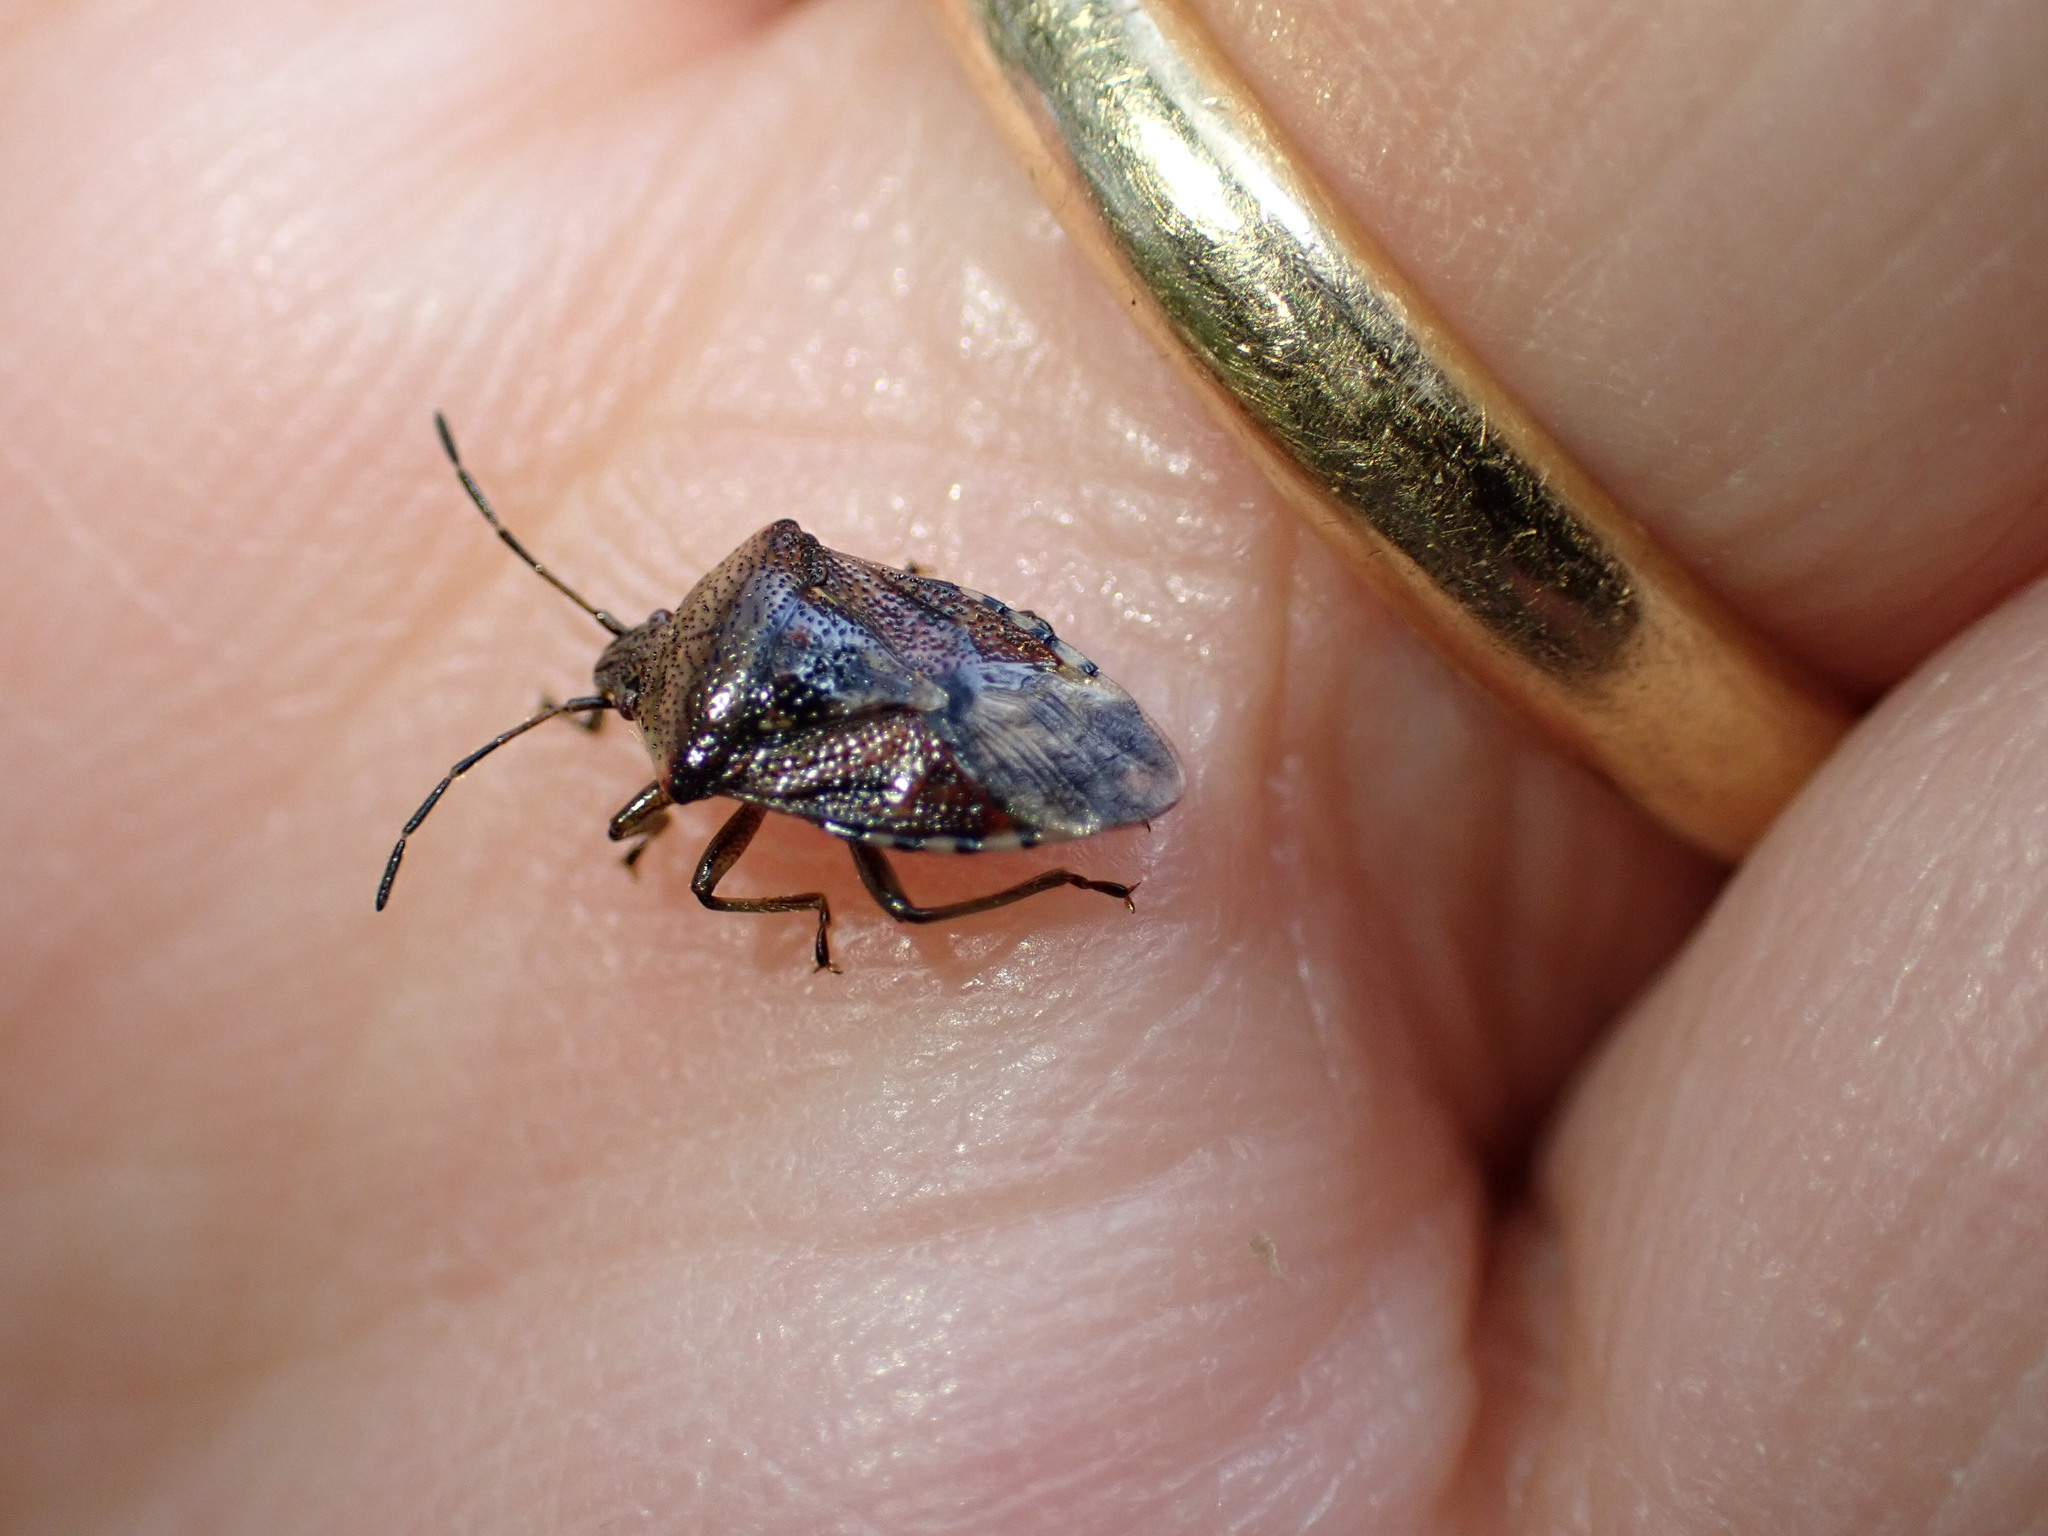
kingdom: Animalia
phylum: Arthropoda
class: Insecta
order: Hemiptera
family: Acanthosomatidae
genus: Elasmucha
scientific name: Elasmucha grisea
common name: Parent bug
